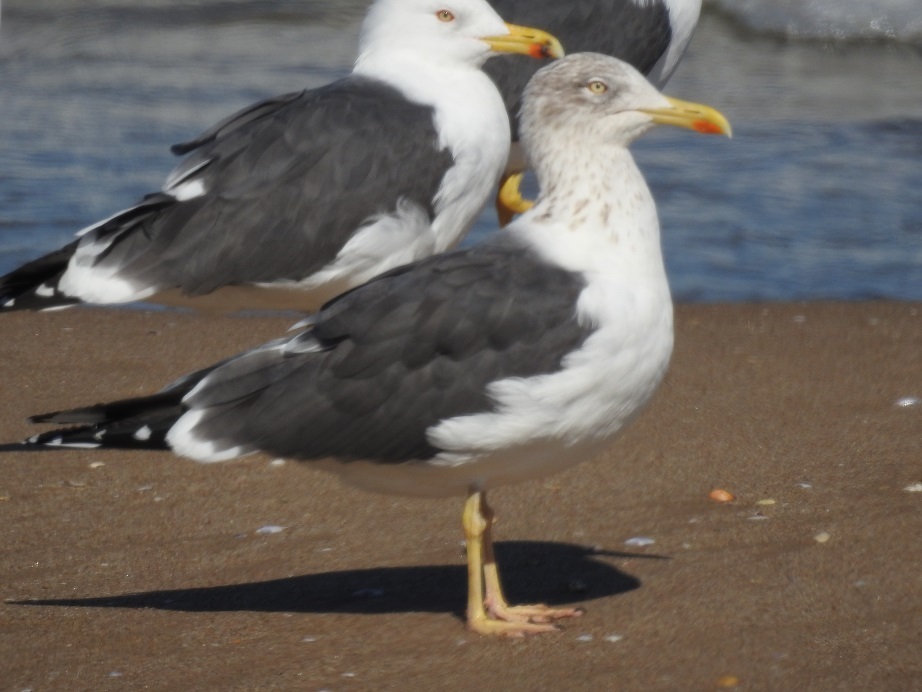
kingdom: Animalia
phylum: Chordata
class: Aves
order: Charadriiformes
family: Laridae
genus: Larus
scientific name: Larus fuscus
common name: Lesser black-backed gull
